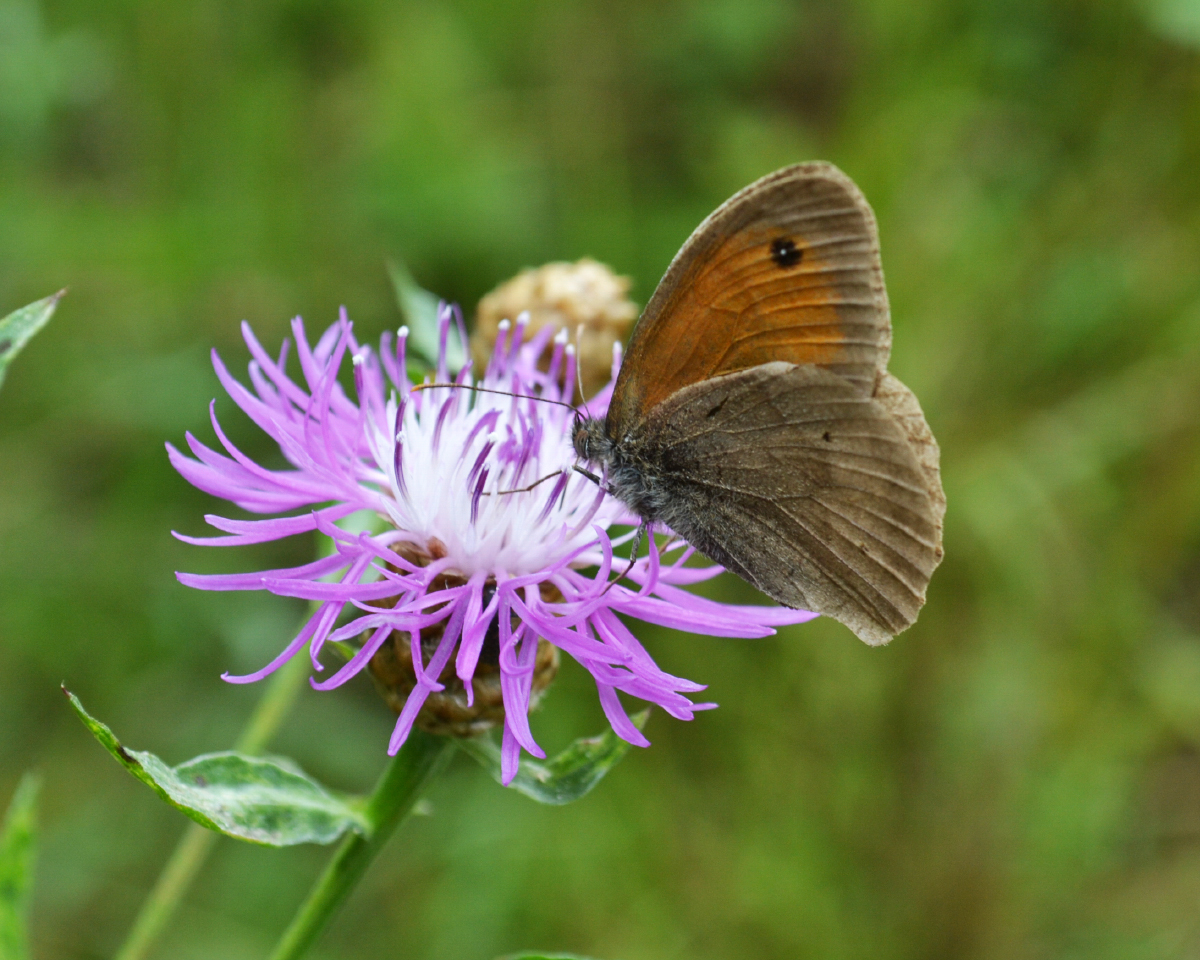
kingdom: Animalia
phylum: Arthropoda
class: Insecta
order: Lepidoptera
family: Nymphalidae
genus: Maniola
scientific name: Maniola jurtina
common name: Meadow brown
